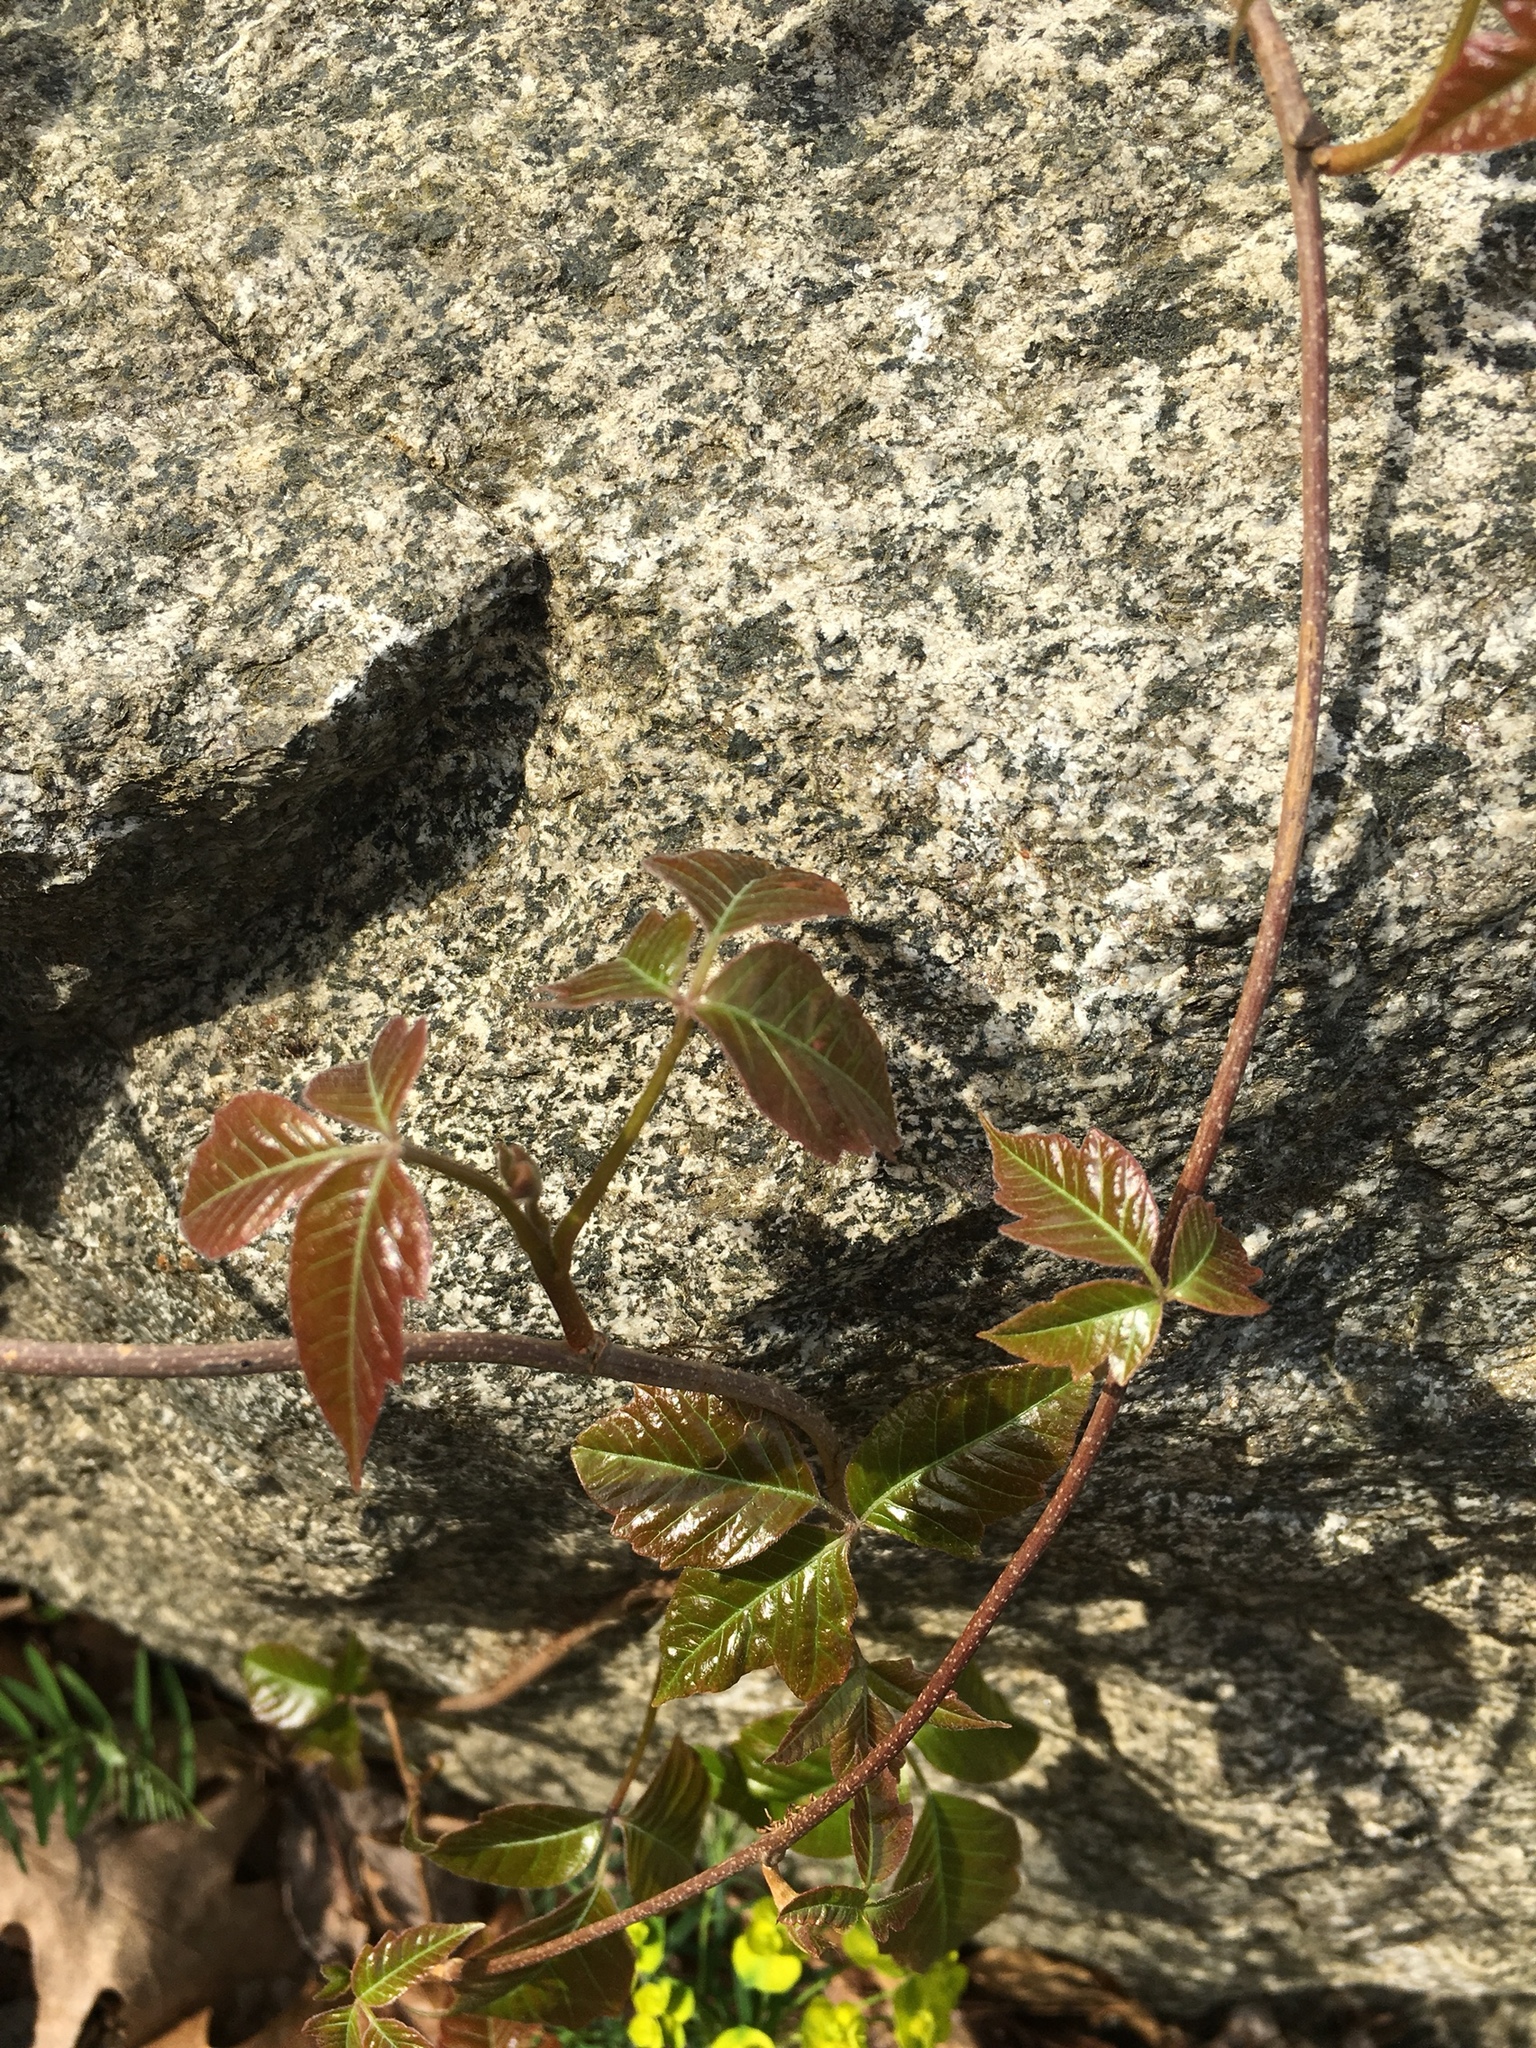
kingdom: Plantae
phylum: Tracheophyta
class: Magnoliopsida
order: Sapindales
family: Anacardiaceae
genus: Toxicodendron
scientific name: Toxicodendron radicans
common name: Poison ivy
